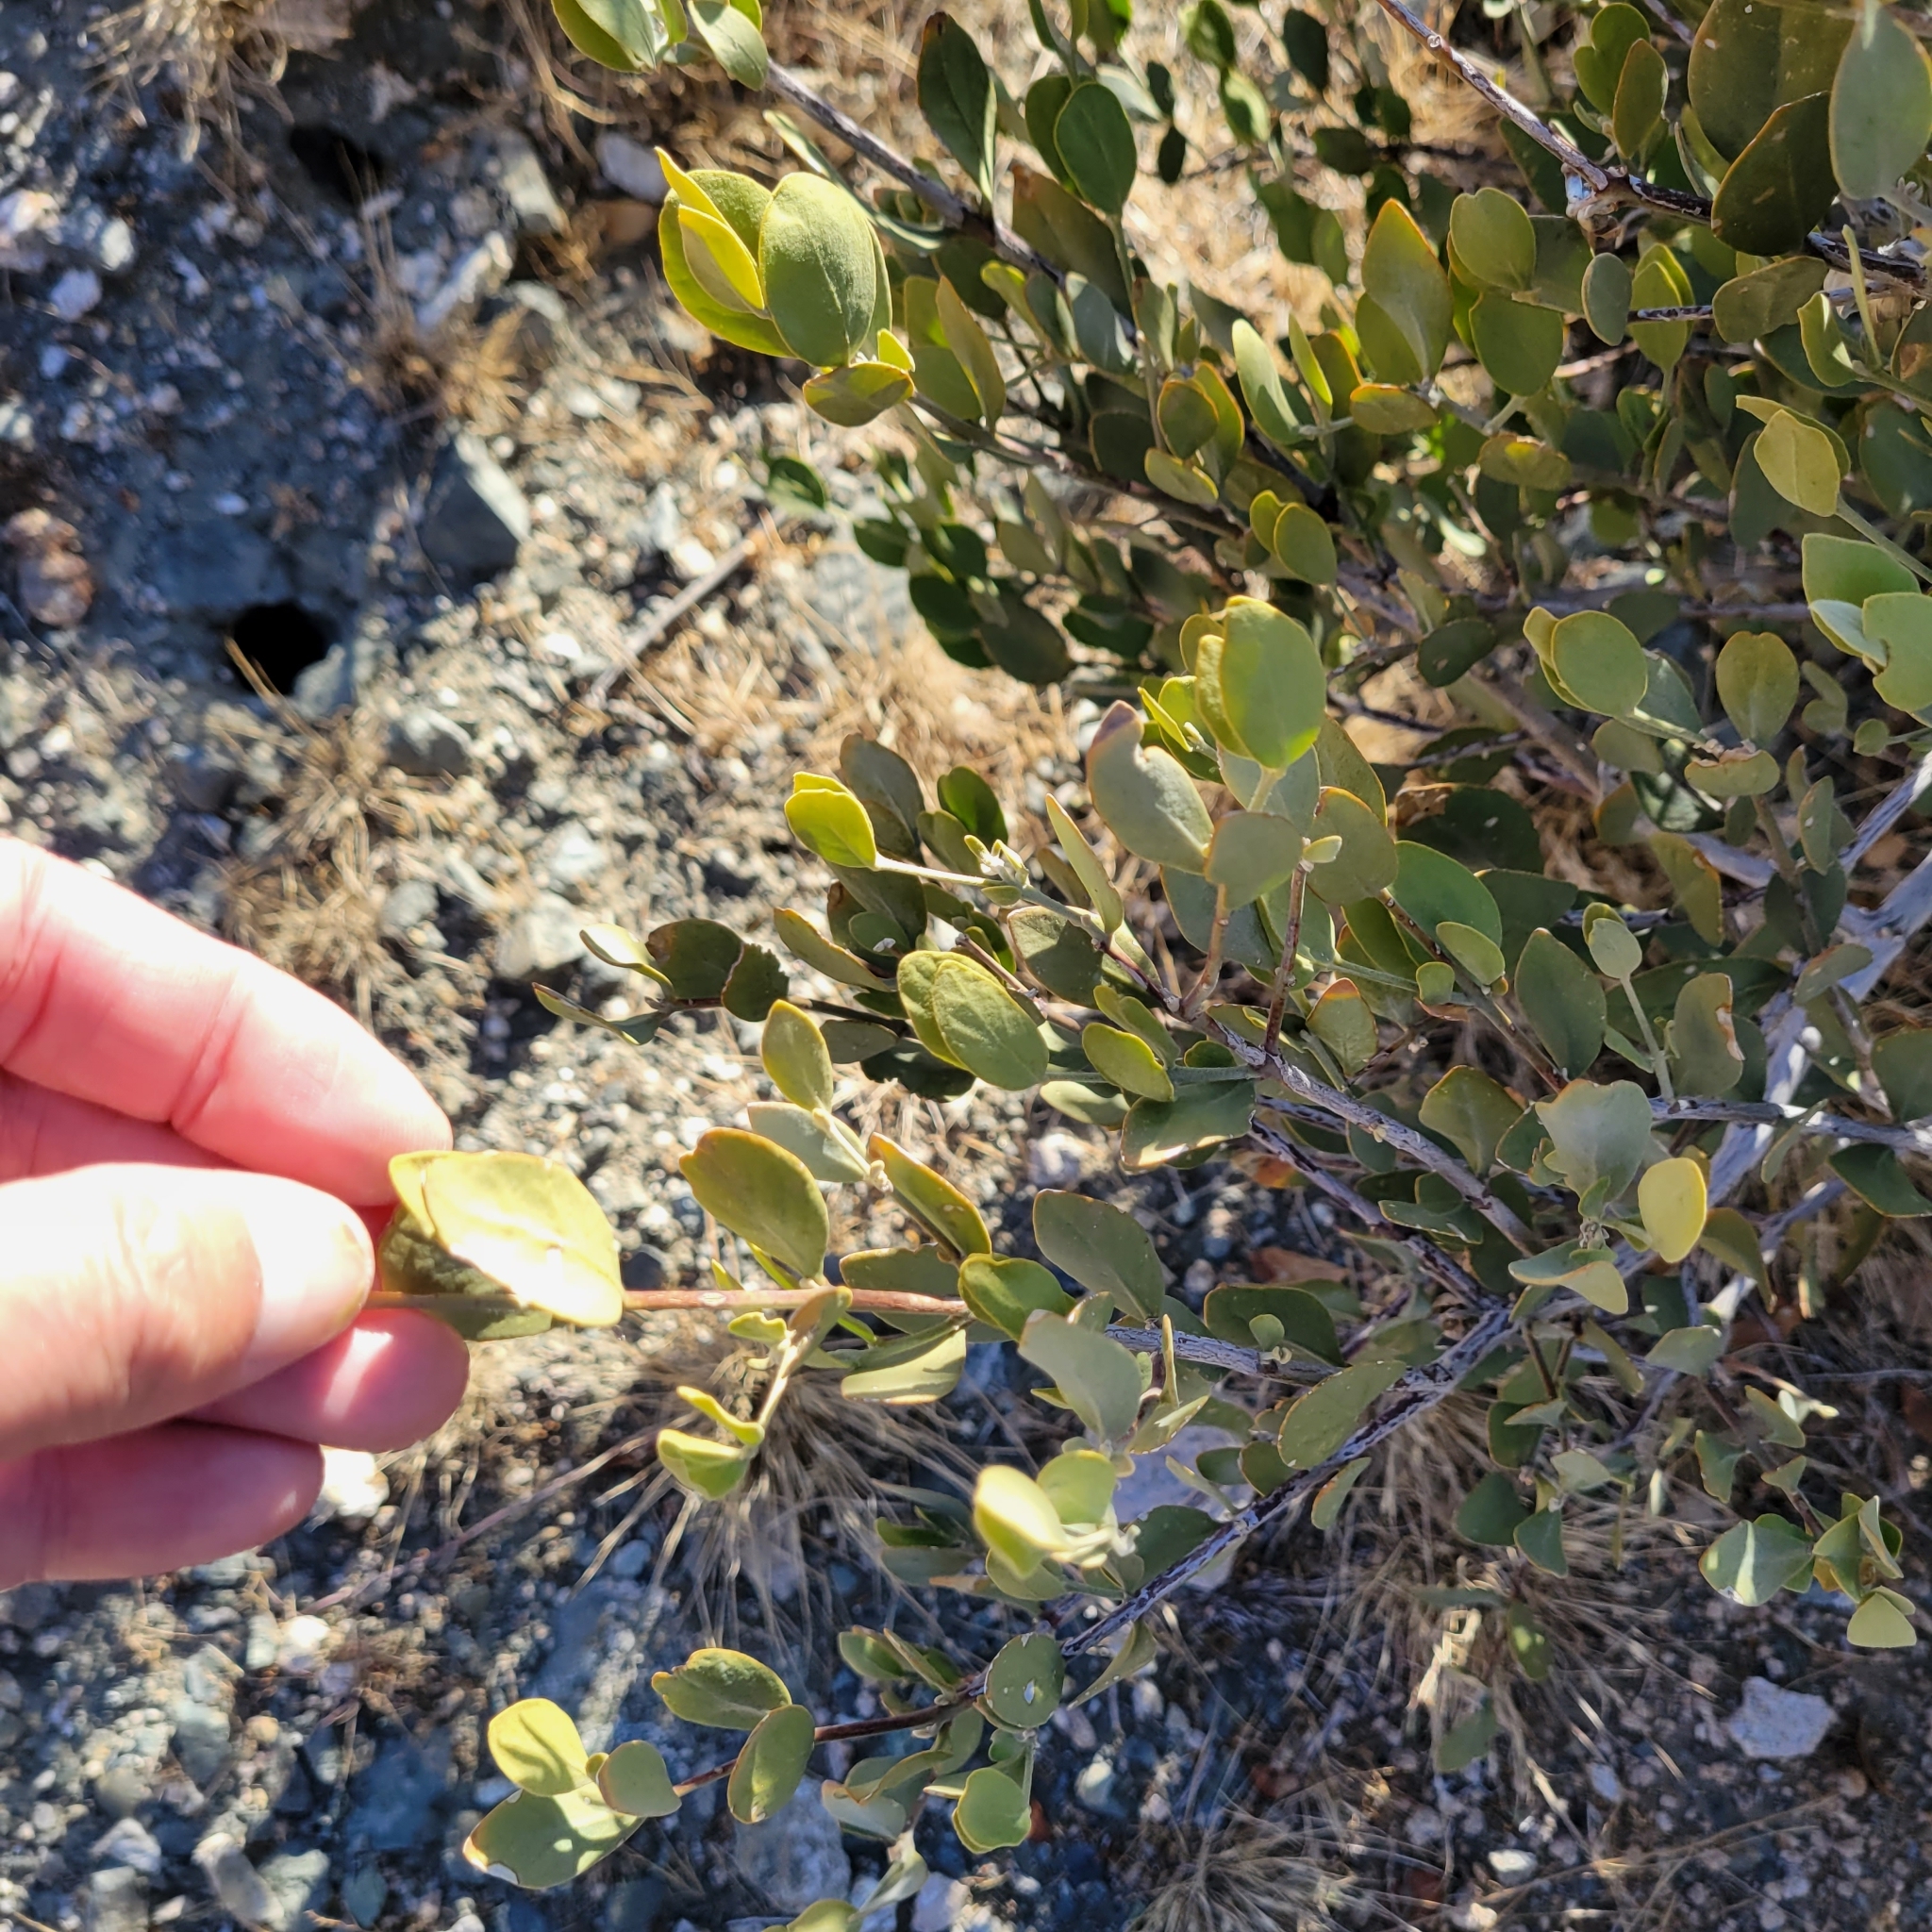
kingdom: Plantae
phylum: Tracheophyta
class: Magnoliopsida
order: Caryophyllales
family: Simmondsiaceae
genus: Simmondsia
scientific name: Simmondsia chinensis
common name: Jojoba
